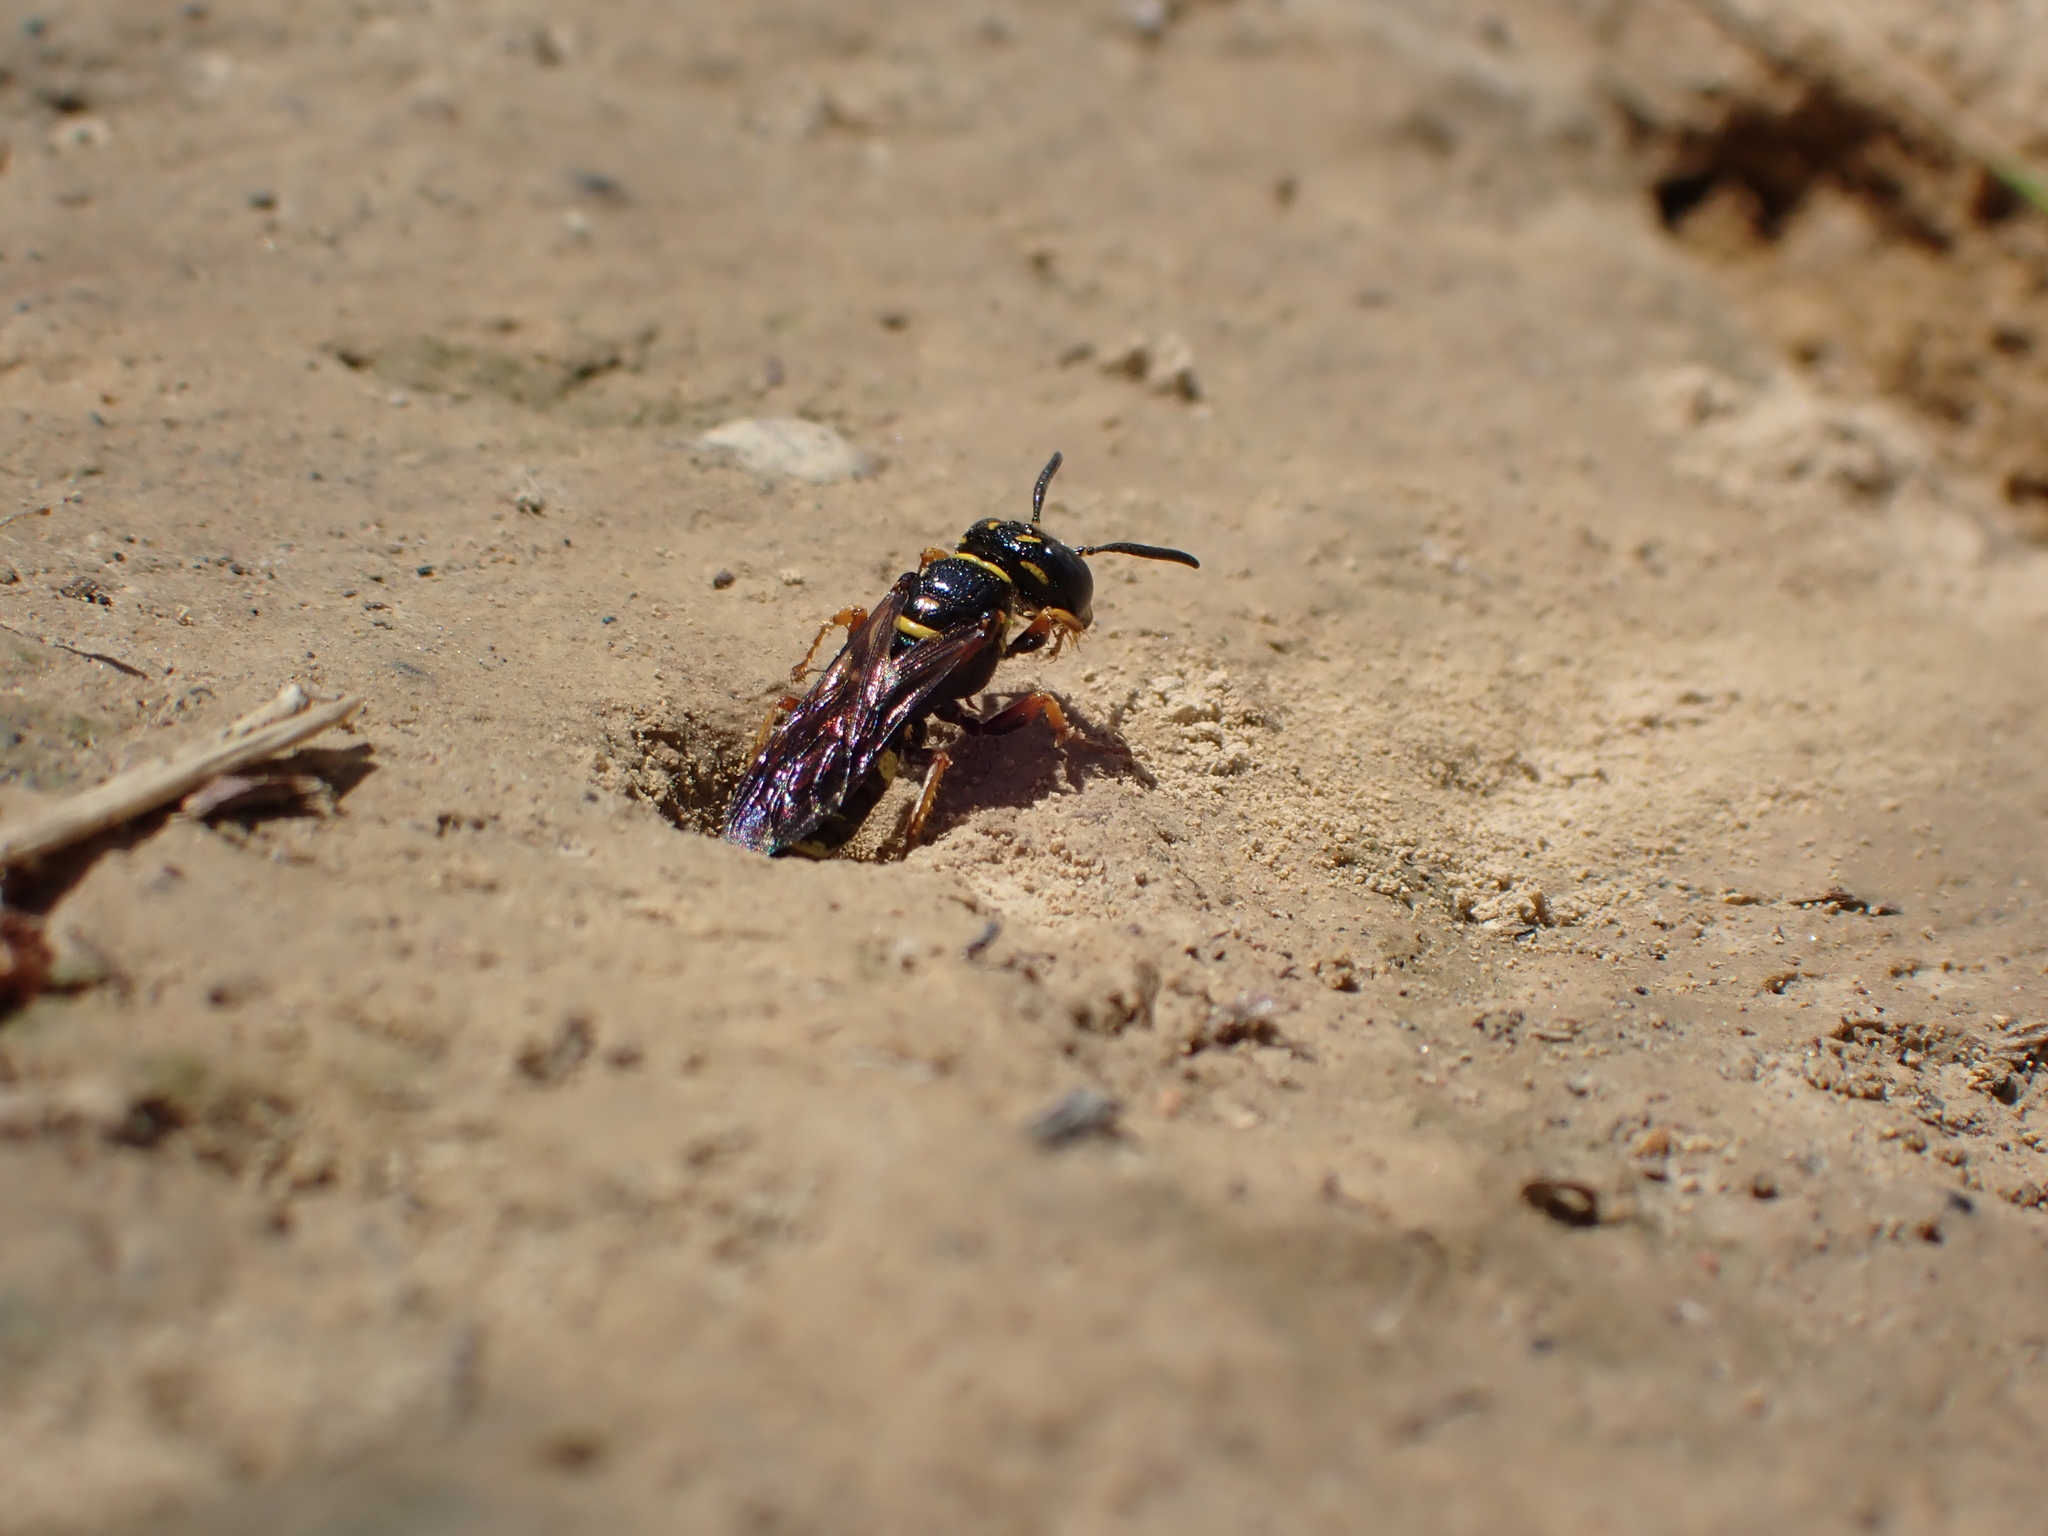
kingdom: Animalia
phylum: Arthropoda
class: Insecta
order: Hymenoptera
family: Crabronidae
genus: Philanthus
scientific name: Philanthus gibbosus
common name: Humped beewolf
